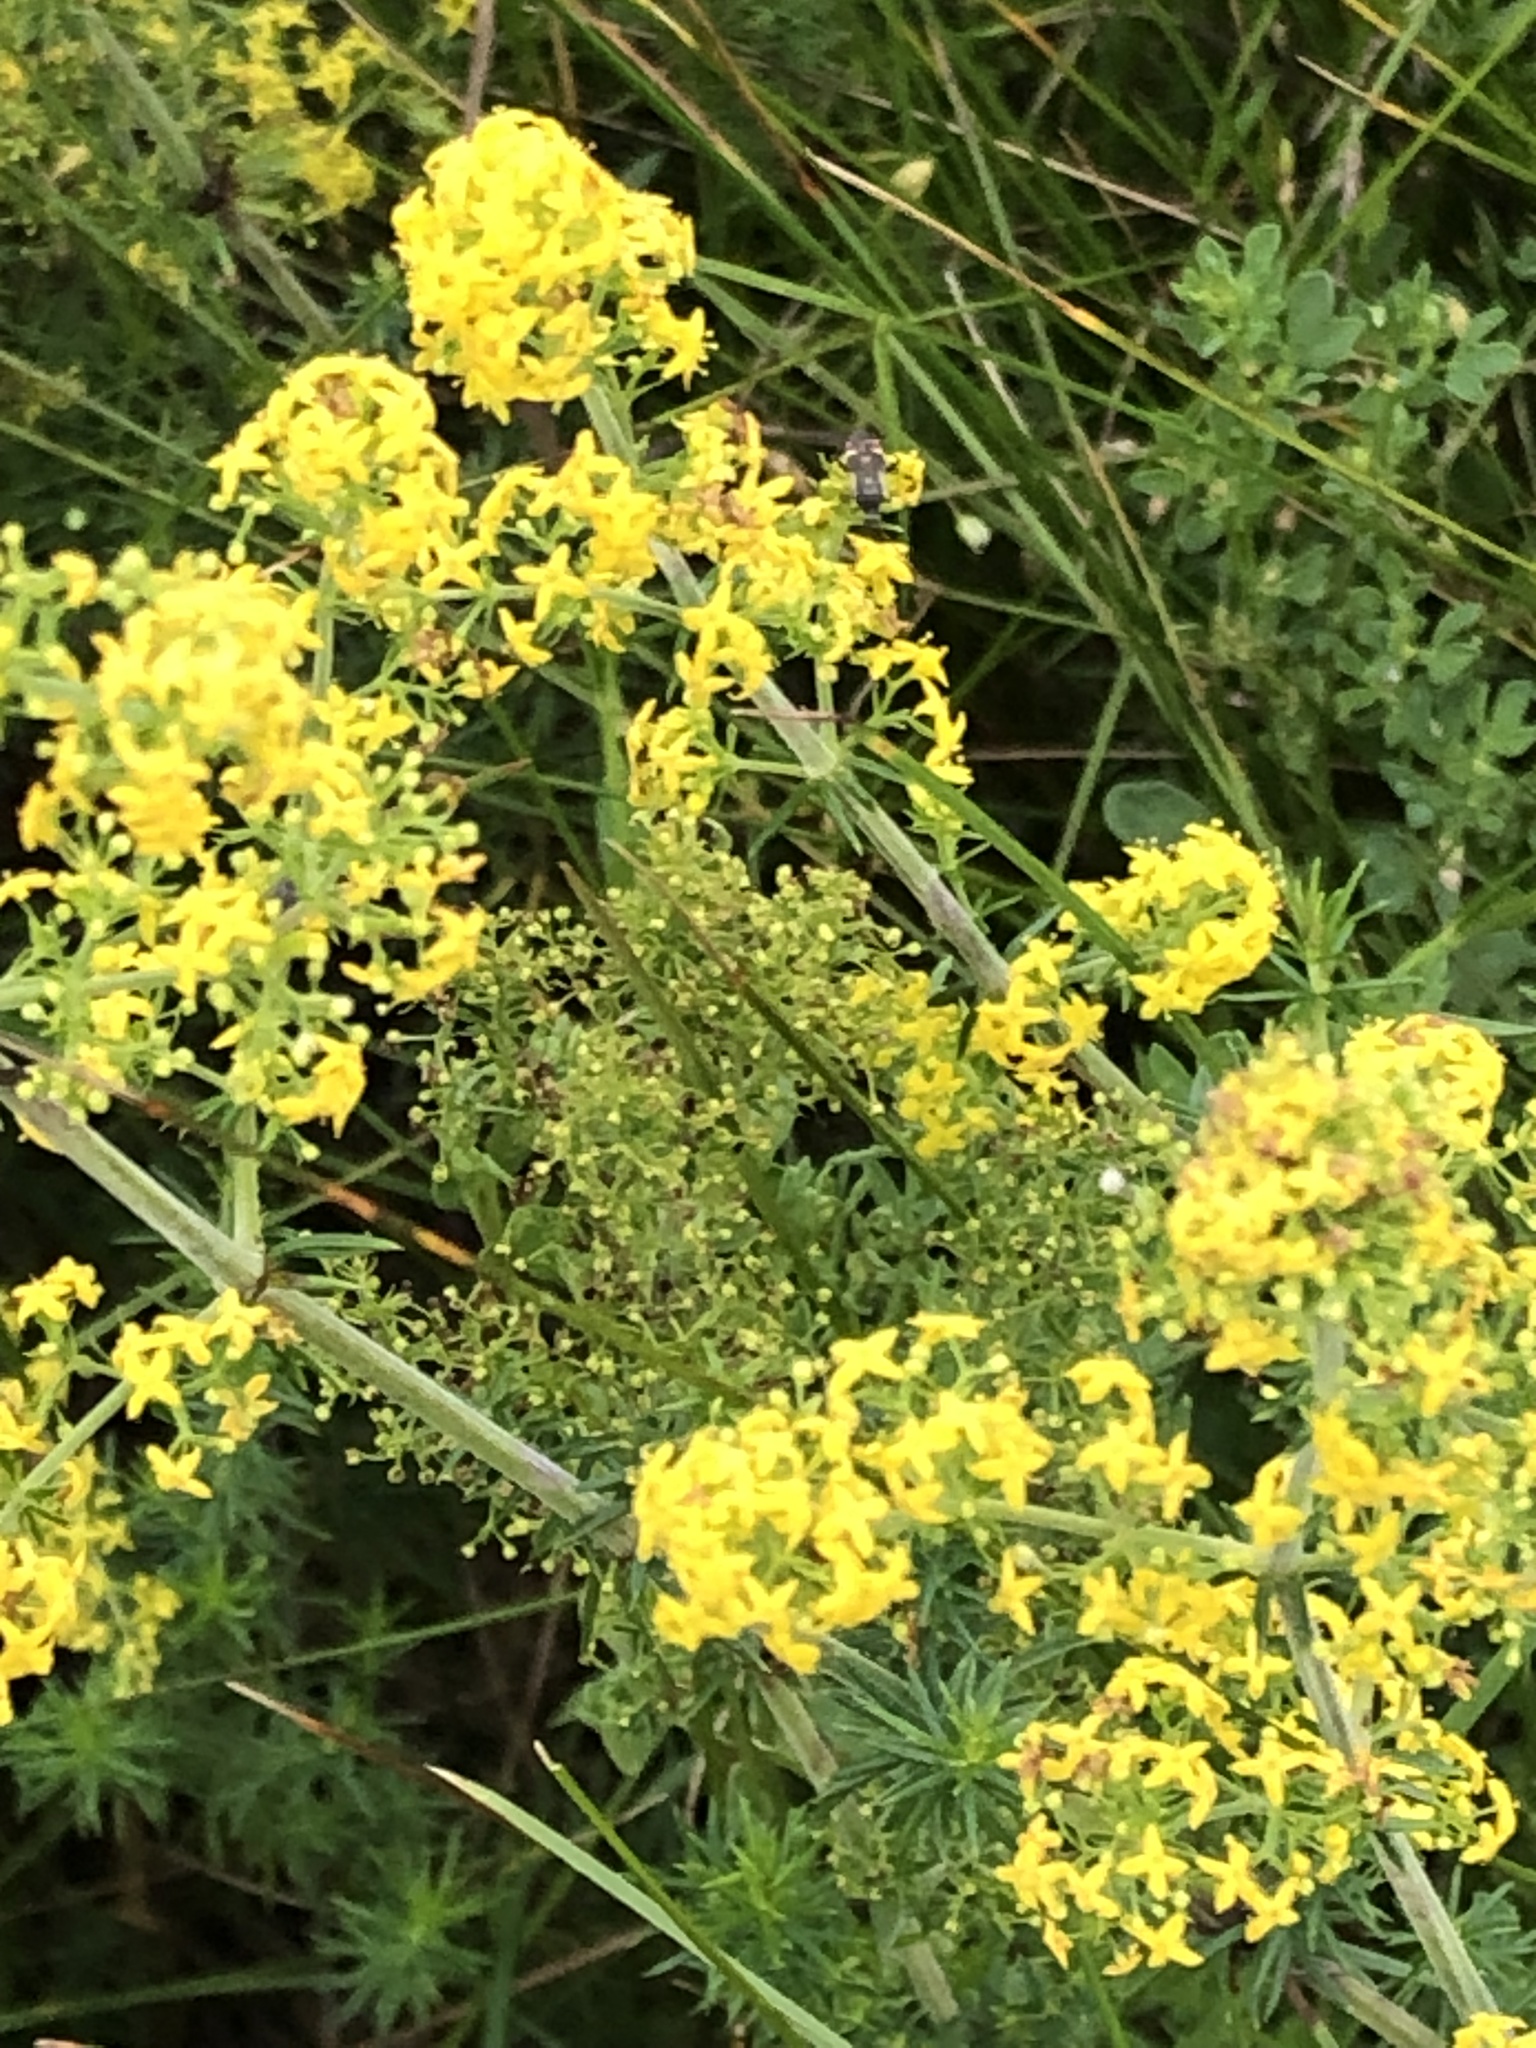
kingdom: Plantae
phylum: Tracheophyta
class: Magnoliopsida
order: Gentianales
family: Rubiaceae
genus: Galium
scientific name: Galium verum
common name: Lady's bedstraw
